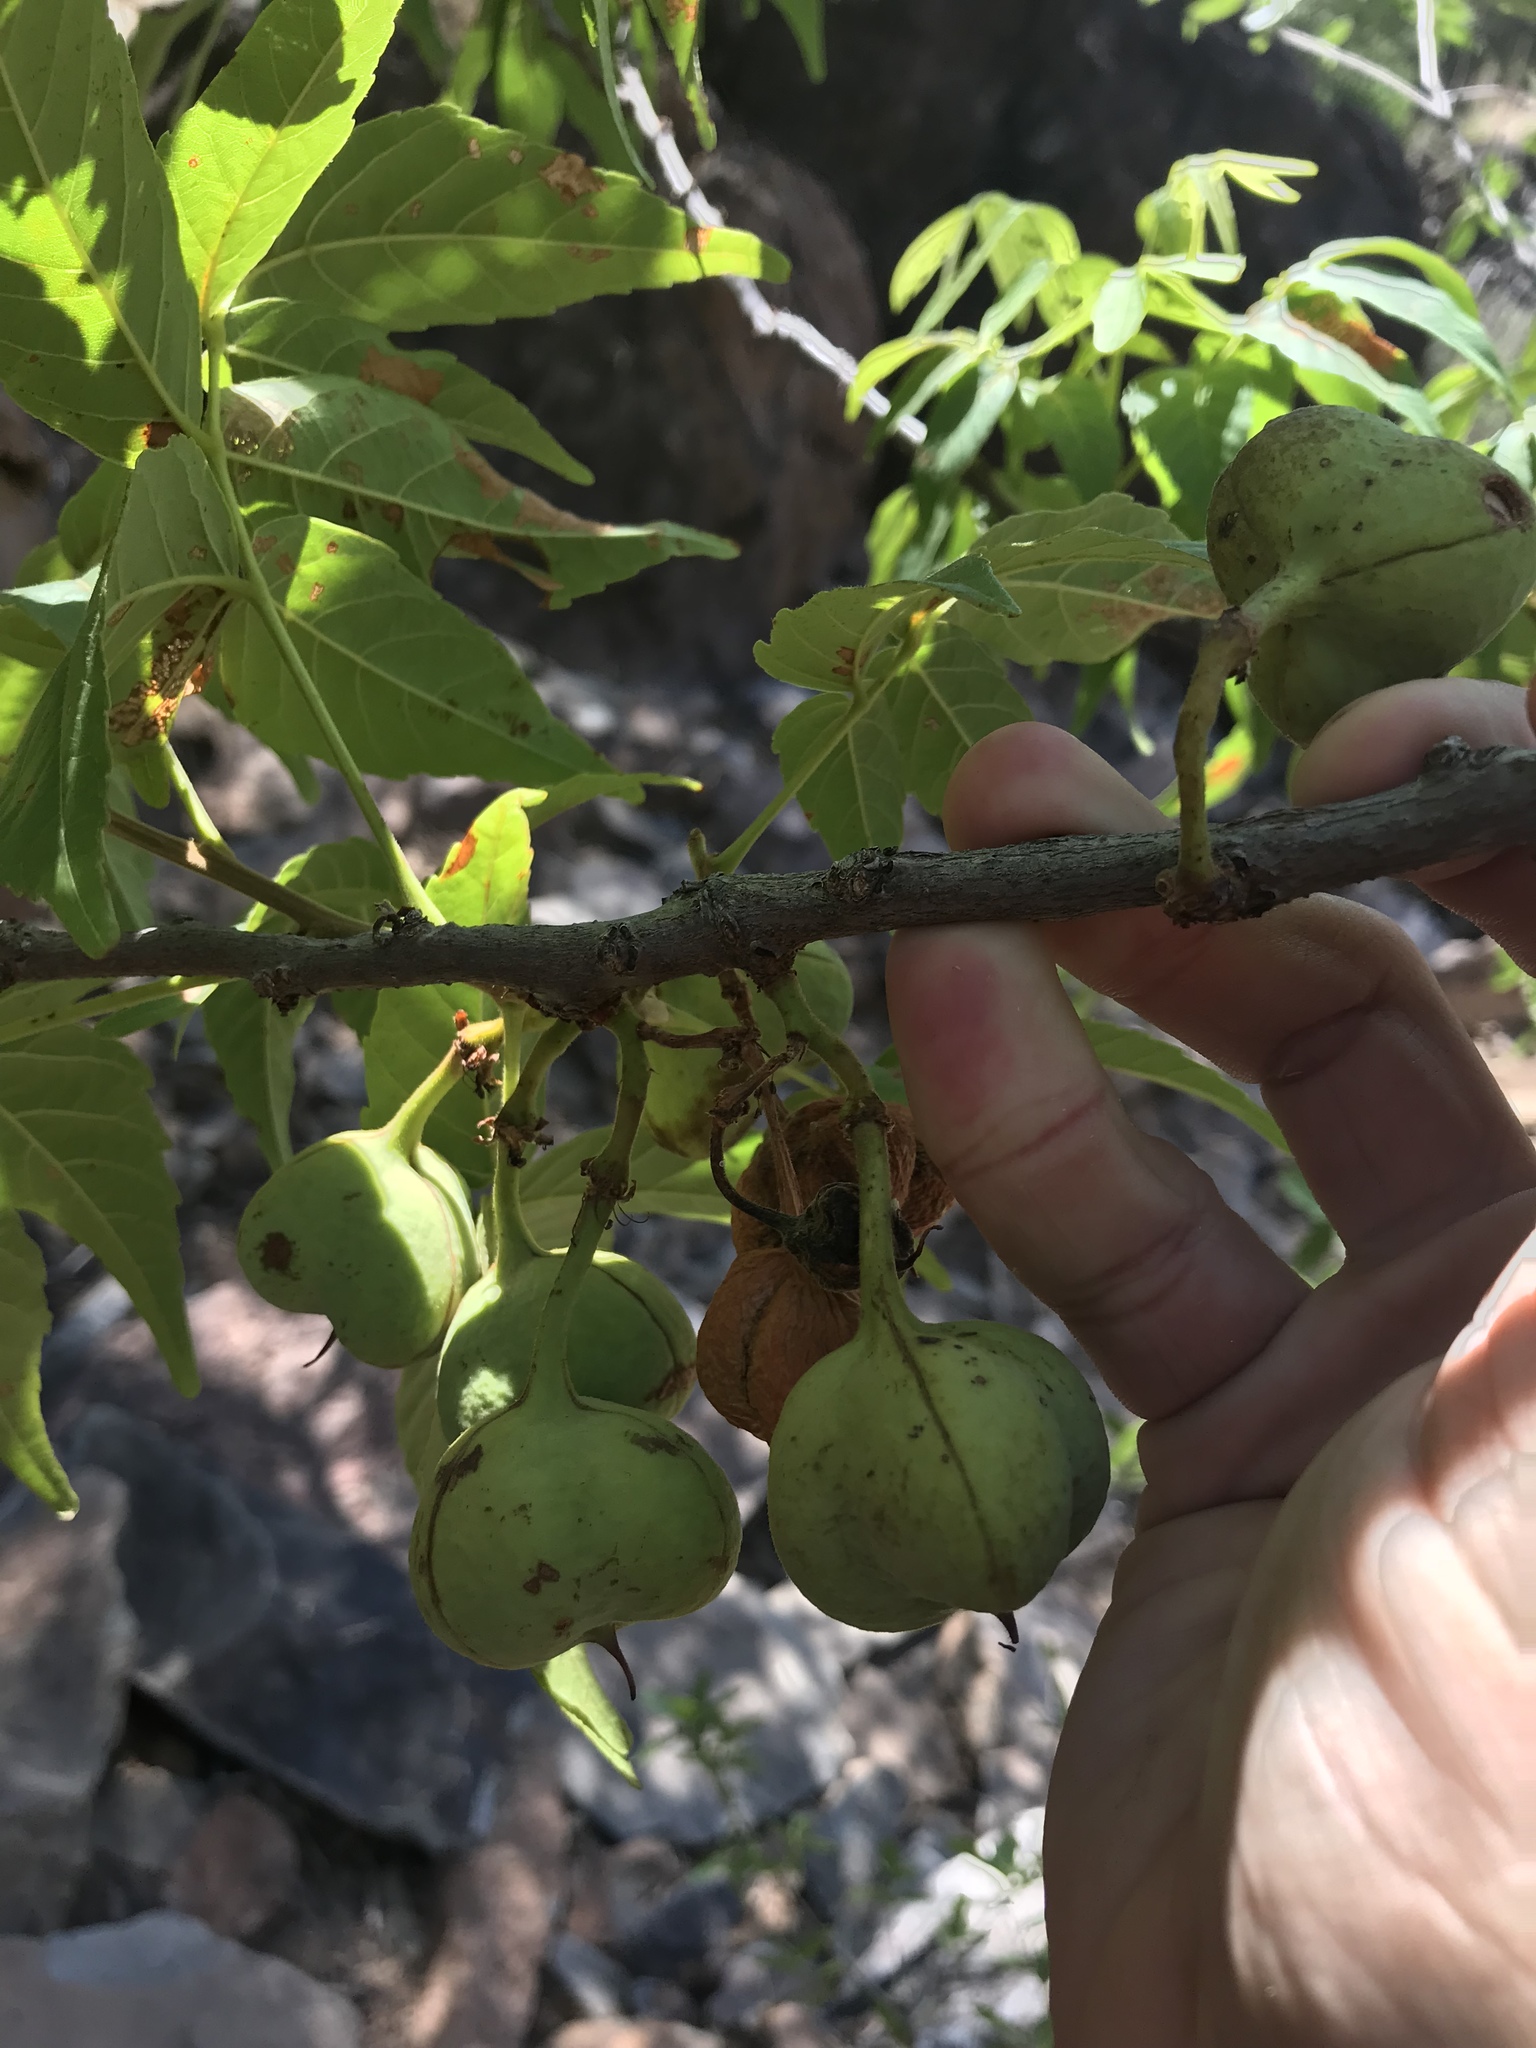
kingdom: Plantae
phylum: Tracheophyta
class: Magnoliopsida
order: Sapindales
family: Sapindaceae
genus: Ungnadia
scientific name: Ungnadia speciosa
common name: Texas-buckeye
